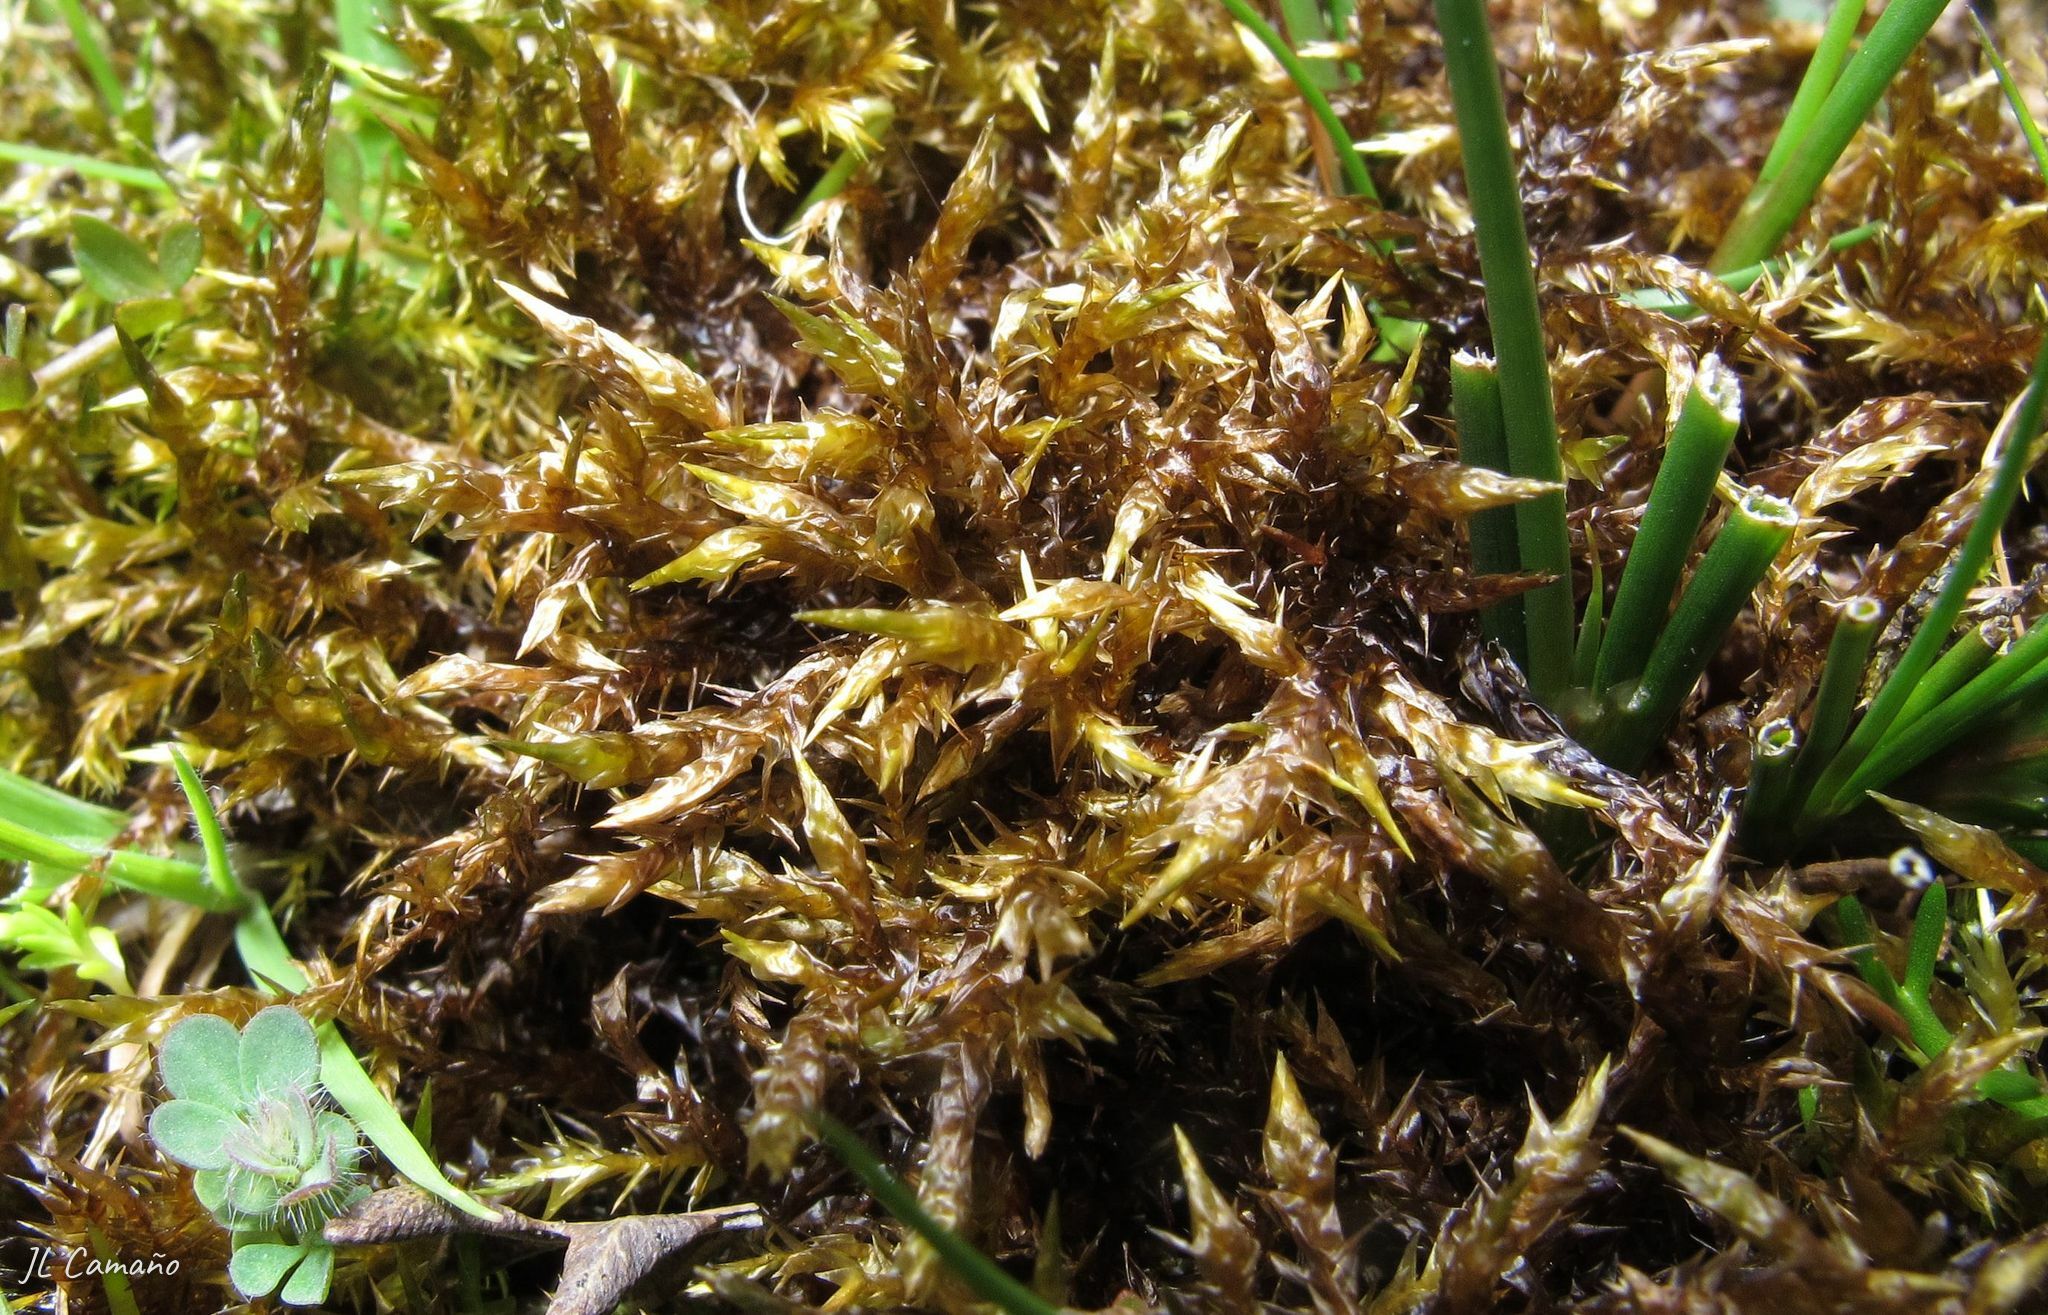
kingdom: Plantae
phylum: Bryophyta
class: Bryopsida
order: Hypnales
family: Pylaisiaceae
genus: Calliergonella
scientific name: Calliergonella cuspidata
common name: Common large wetland moss
